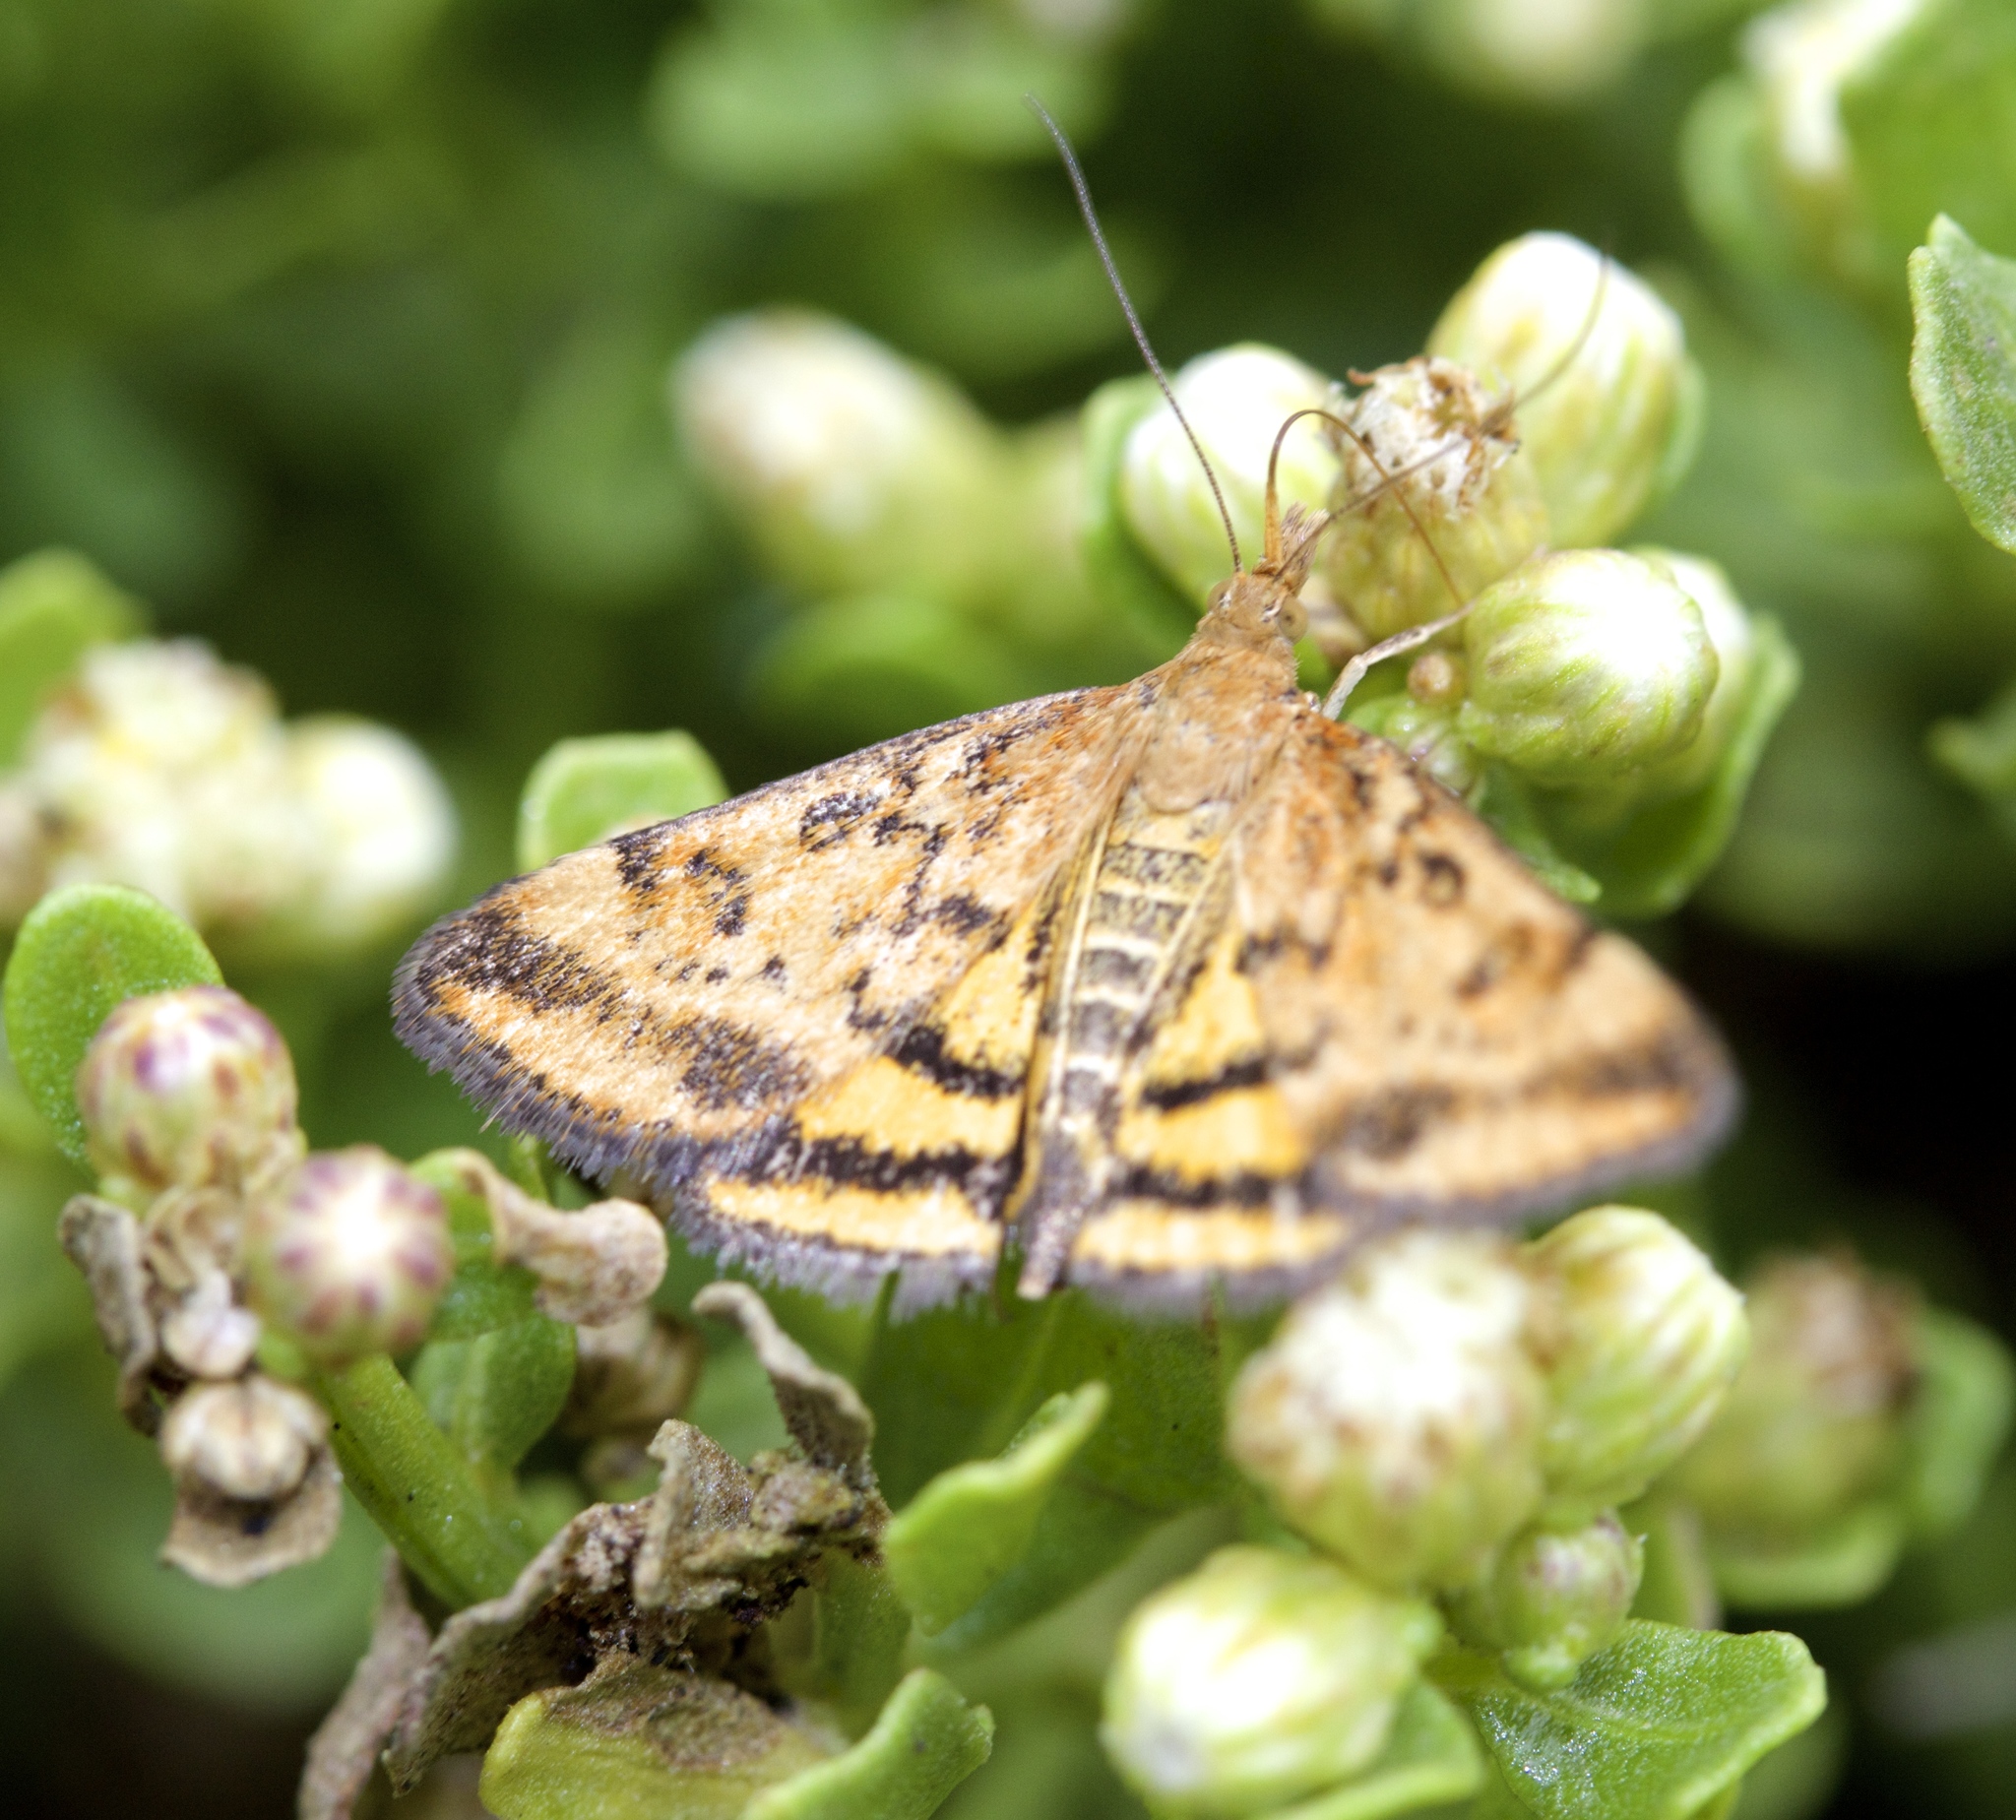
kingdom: Animalia
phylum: Arthropoda
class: Insecta
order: Lepidoptera
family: Crambidae
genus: Pyrausta
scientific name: Pyrausta subsequalis
